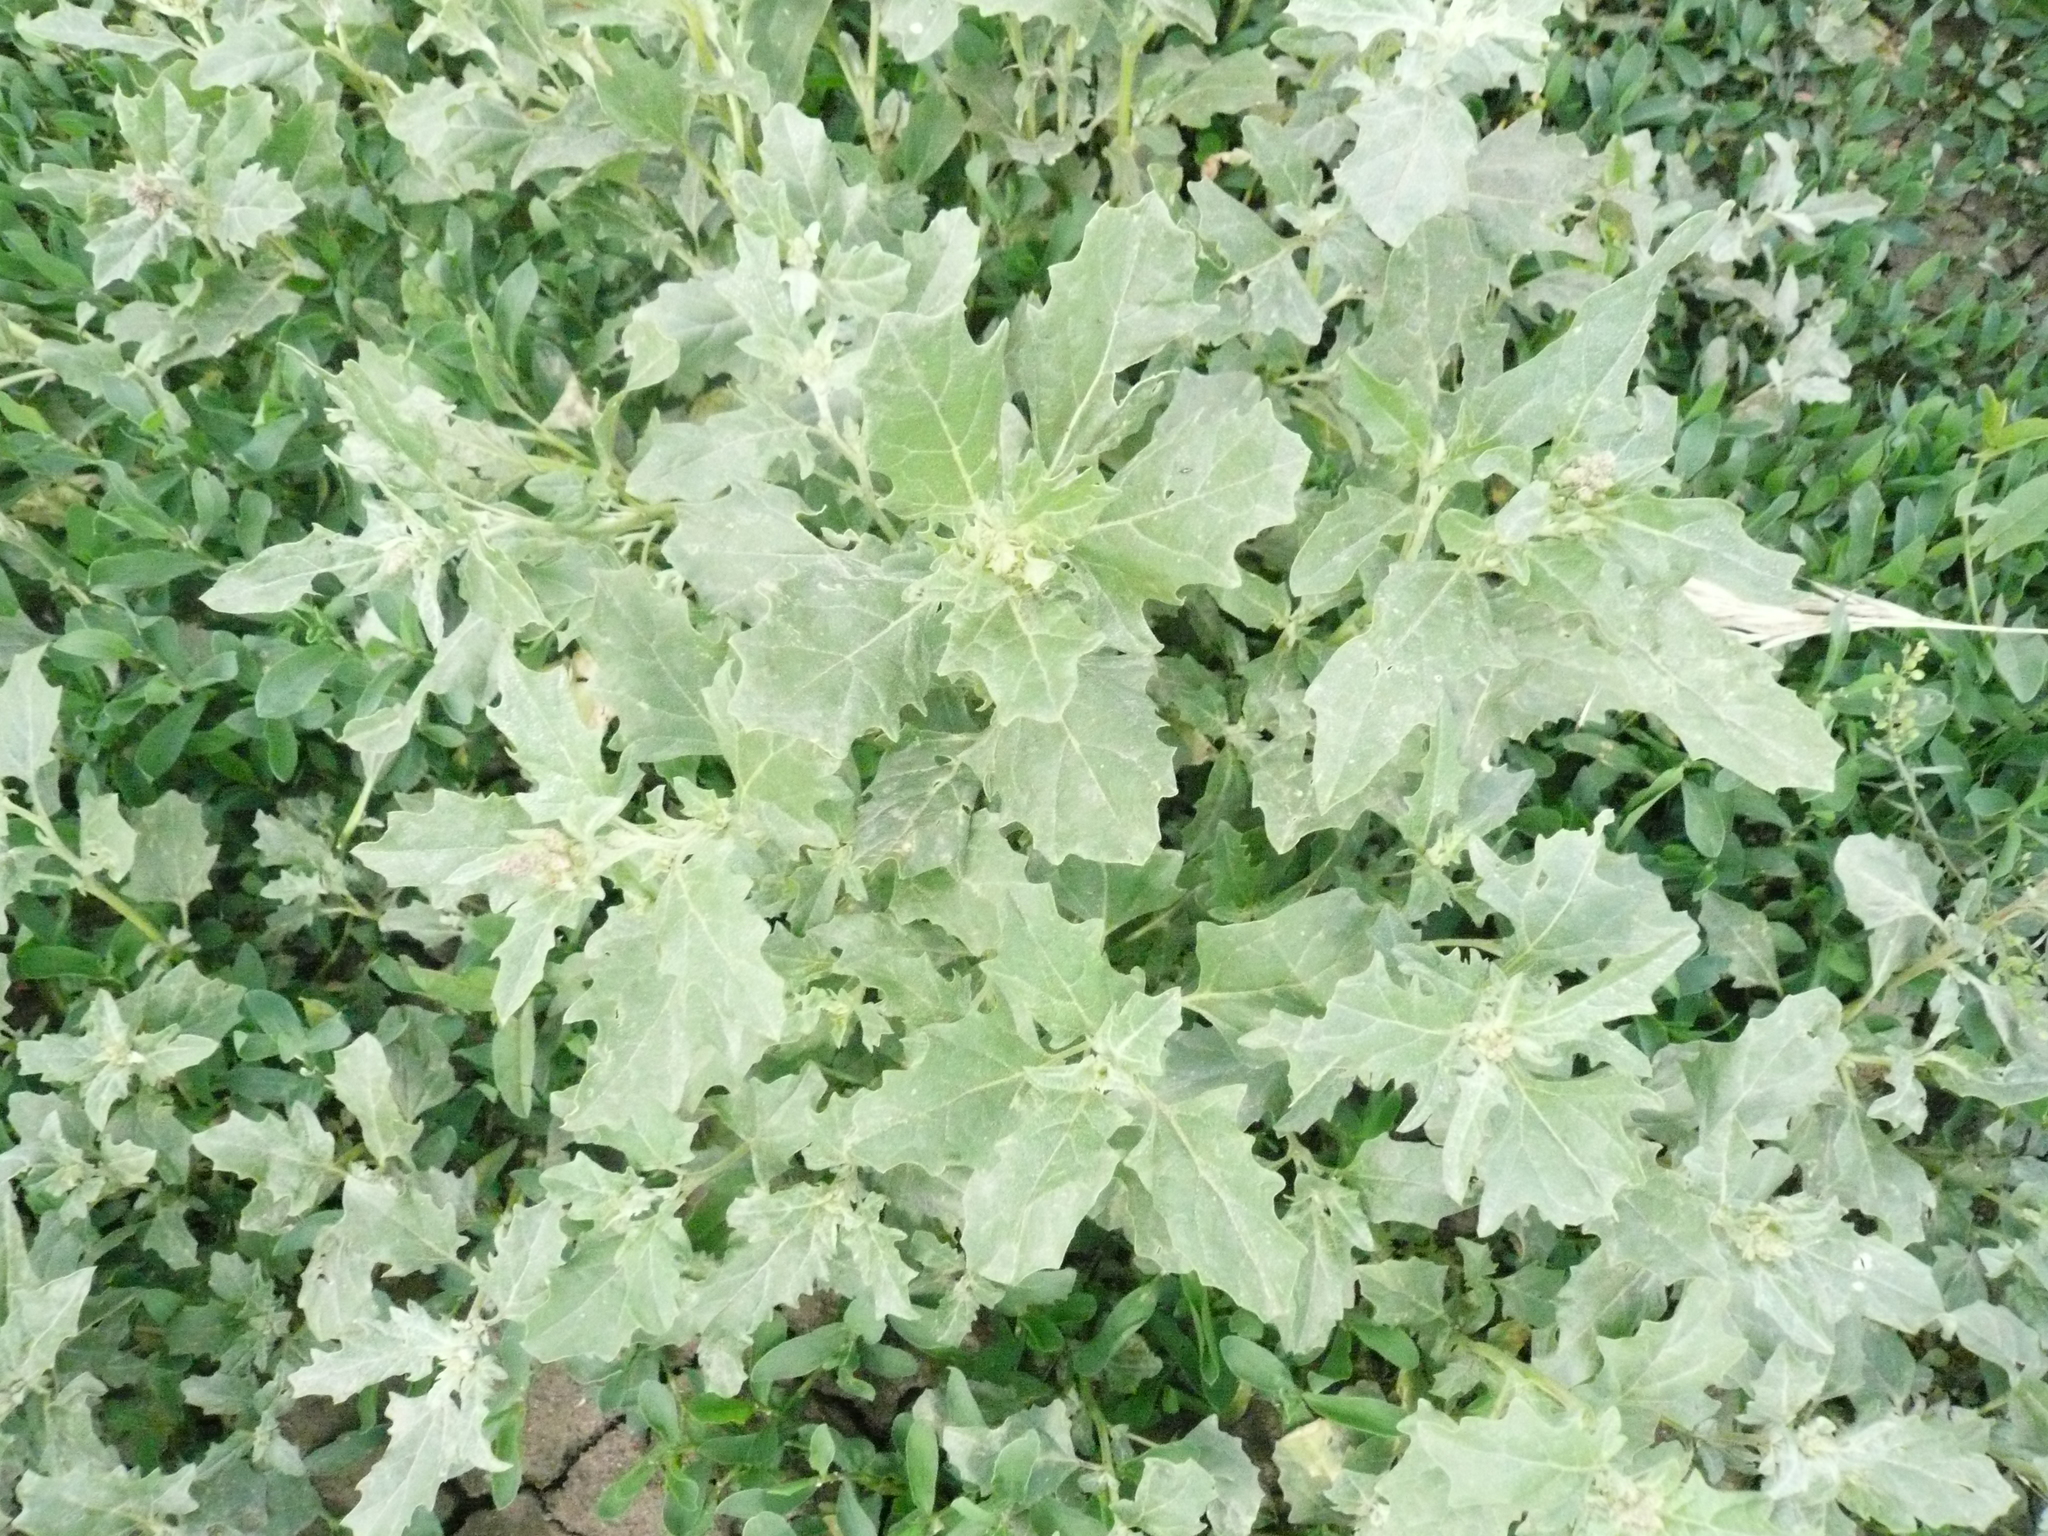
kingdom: Plantae
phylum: Tracheophyta
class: Magnoliopsida
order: Caryophyllales
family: Amaranthaceae
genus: Atriplex
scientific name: Atriplex tatarica
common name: Tatarian orache
